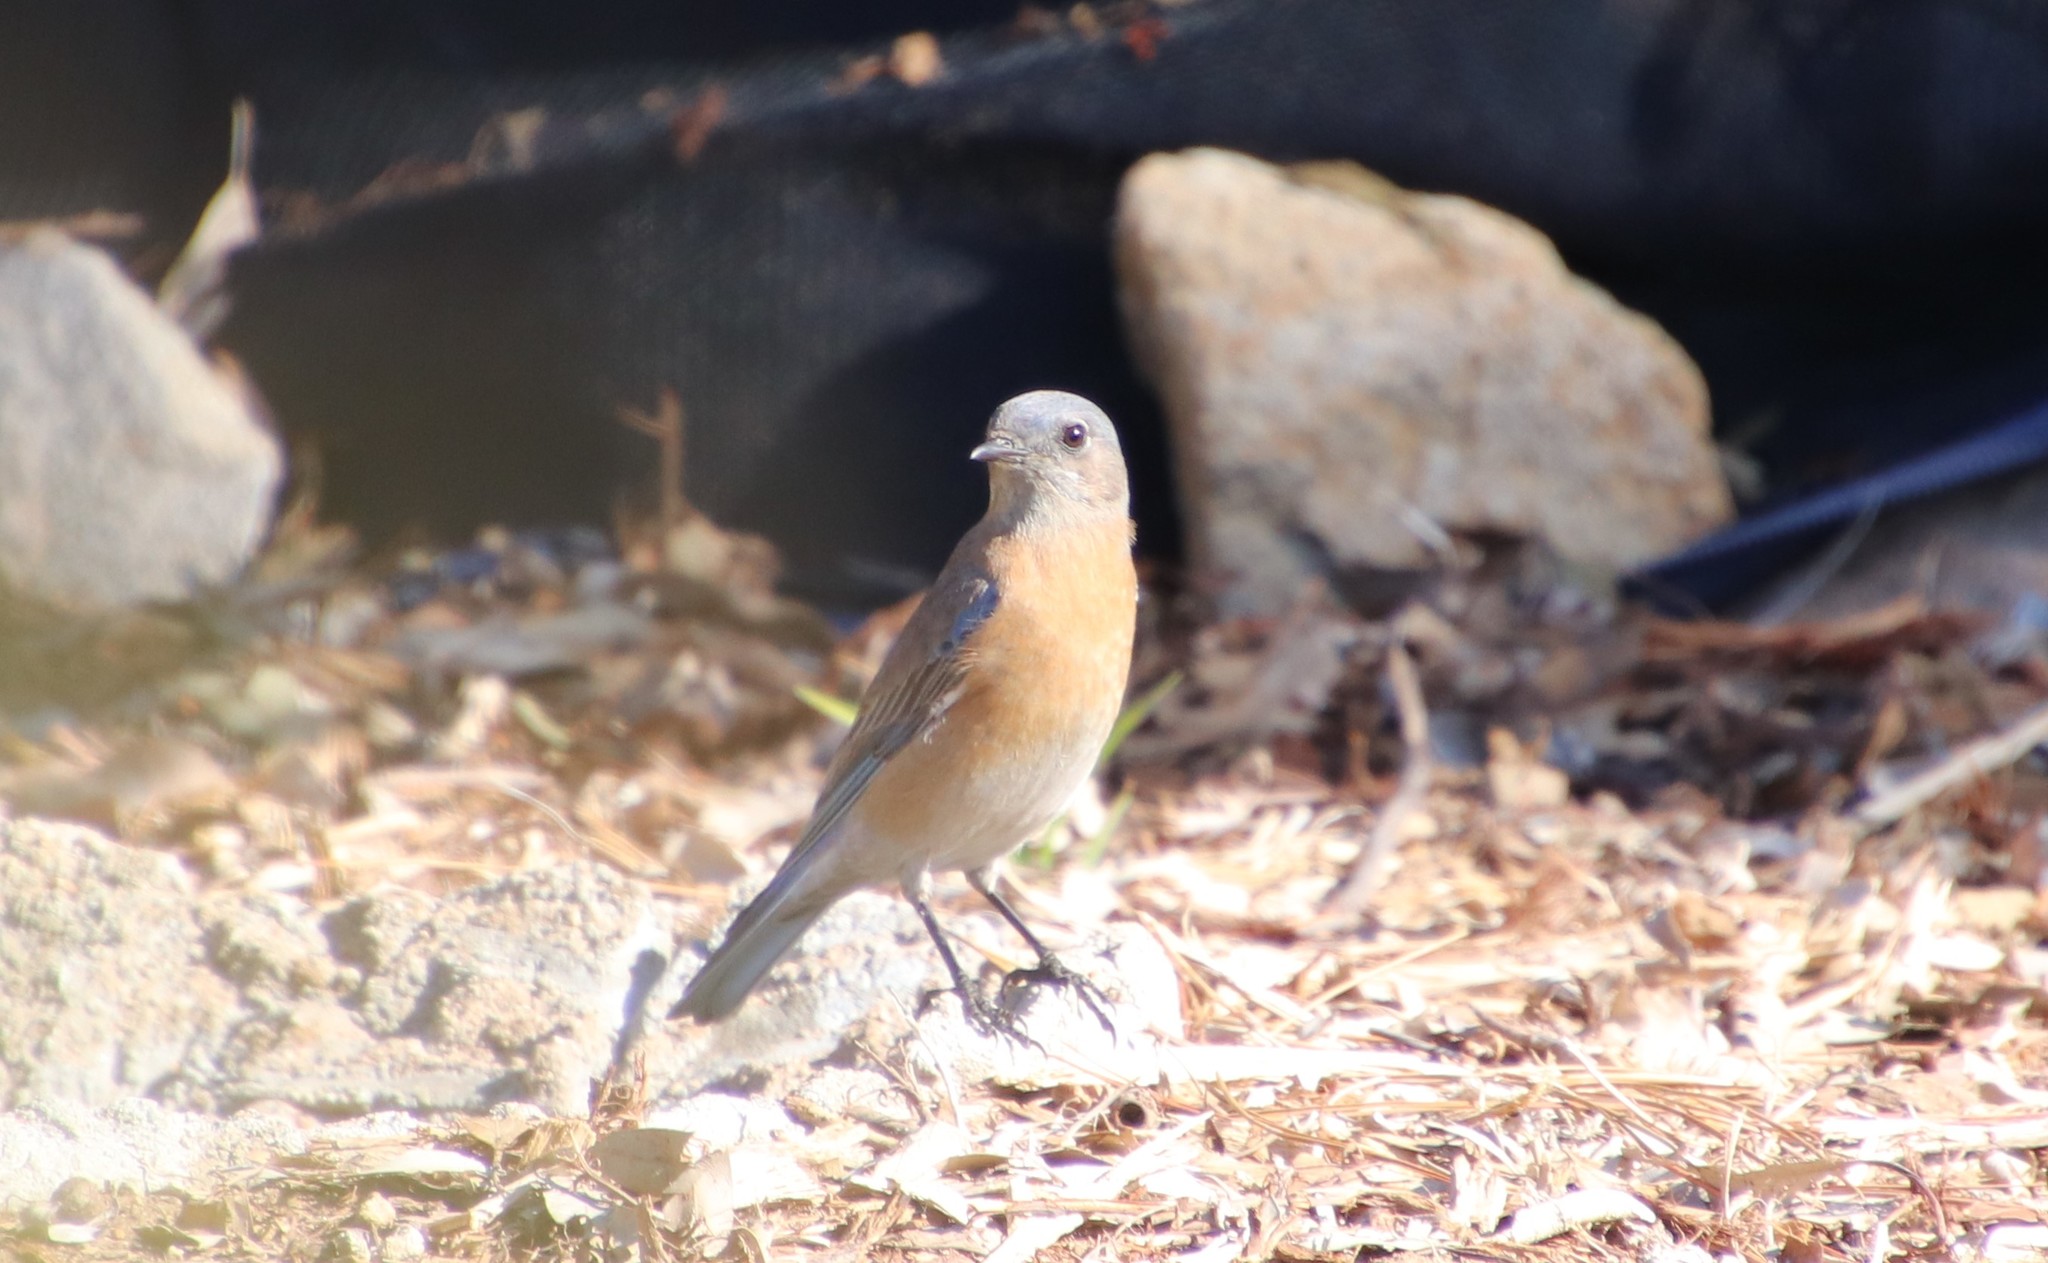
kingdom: Animalia
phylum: Chordata
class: Aves
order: Passeriformes
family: Turdidae
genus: Sialia
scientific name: Sialia mexicana
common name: Western bluebird
